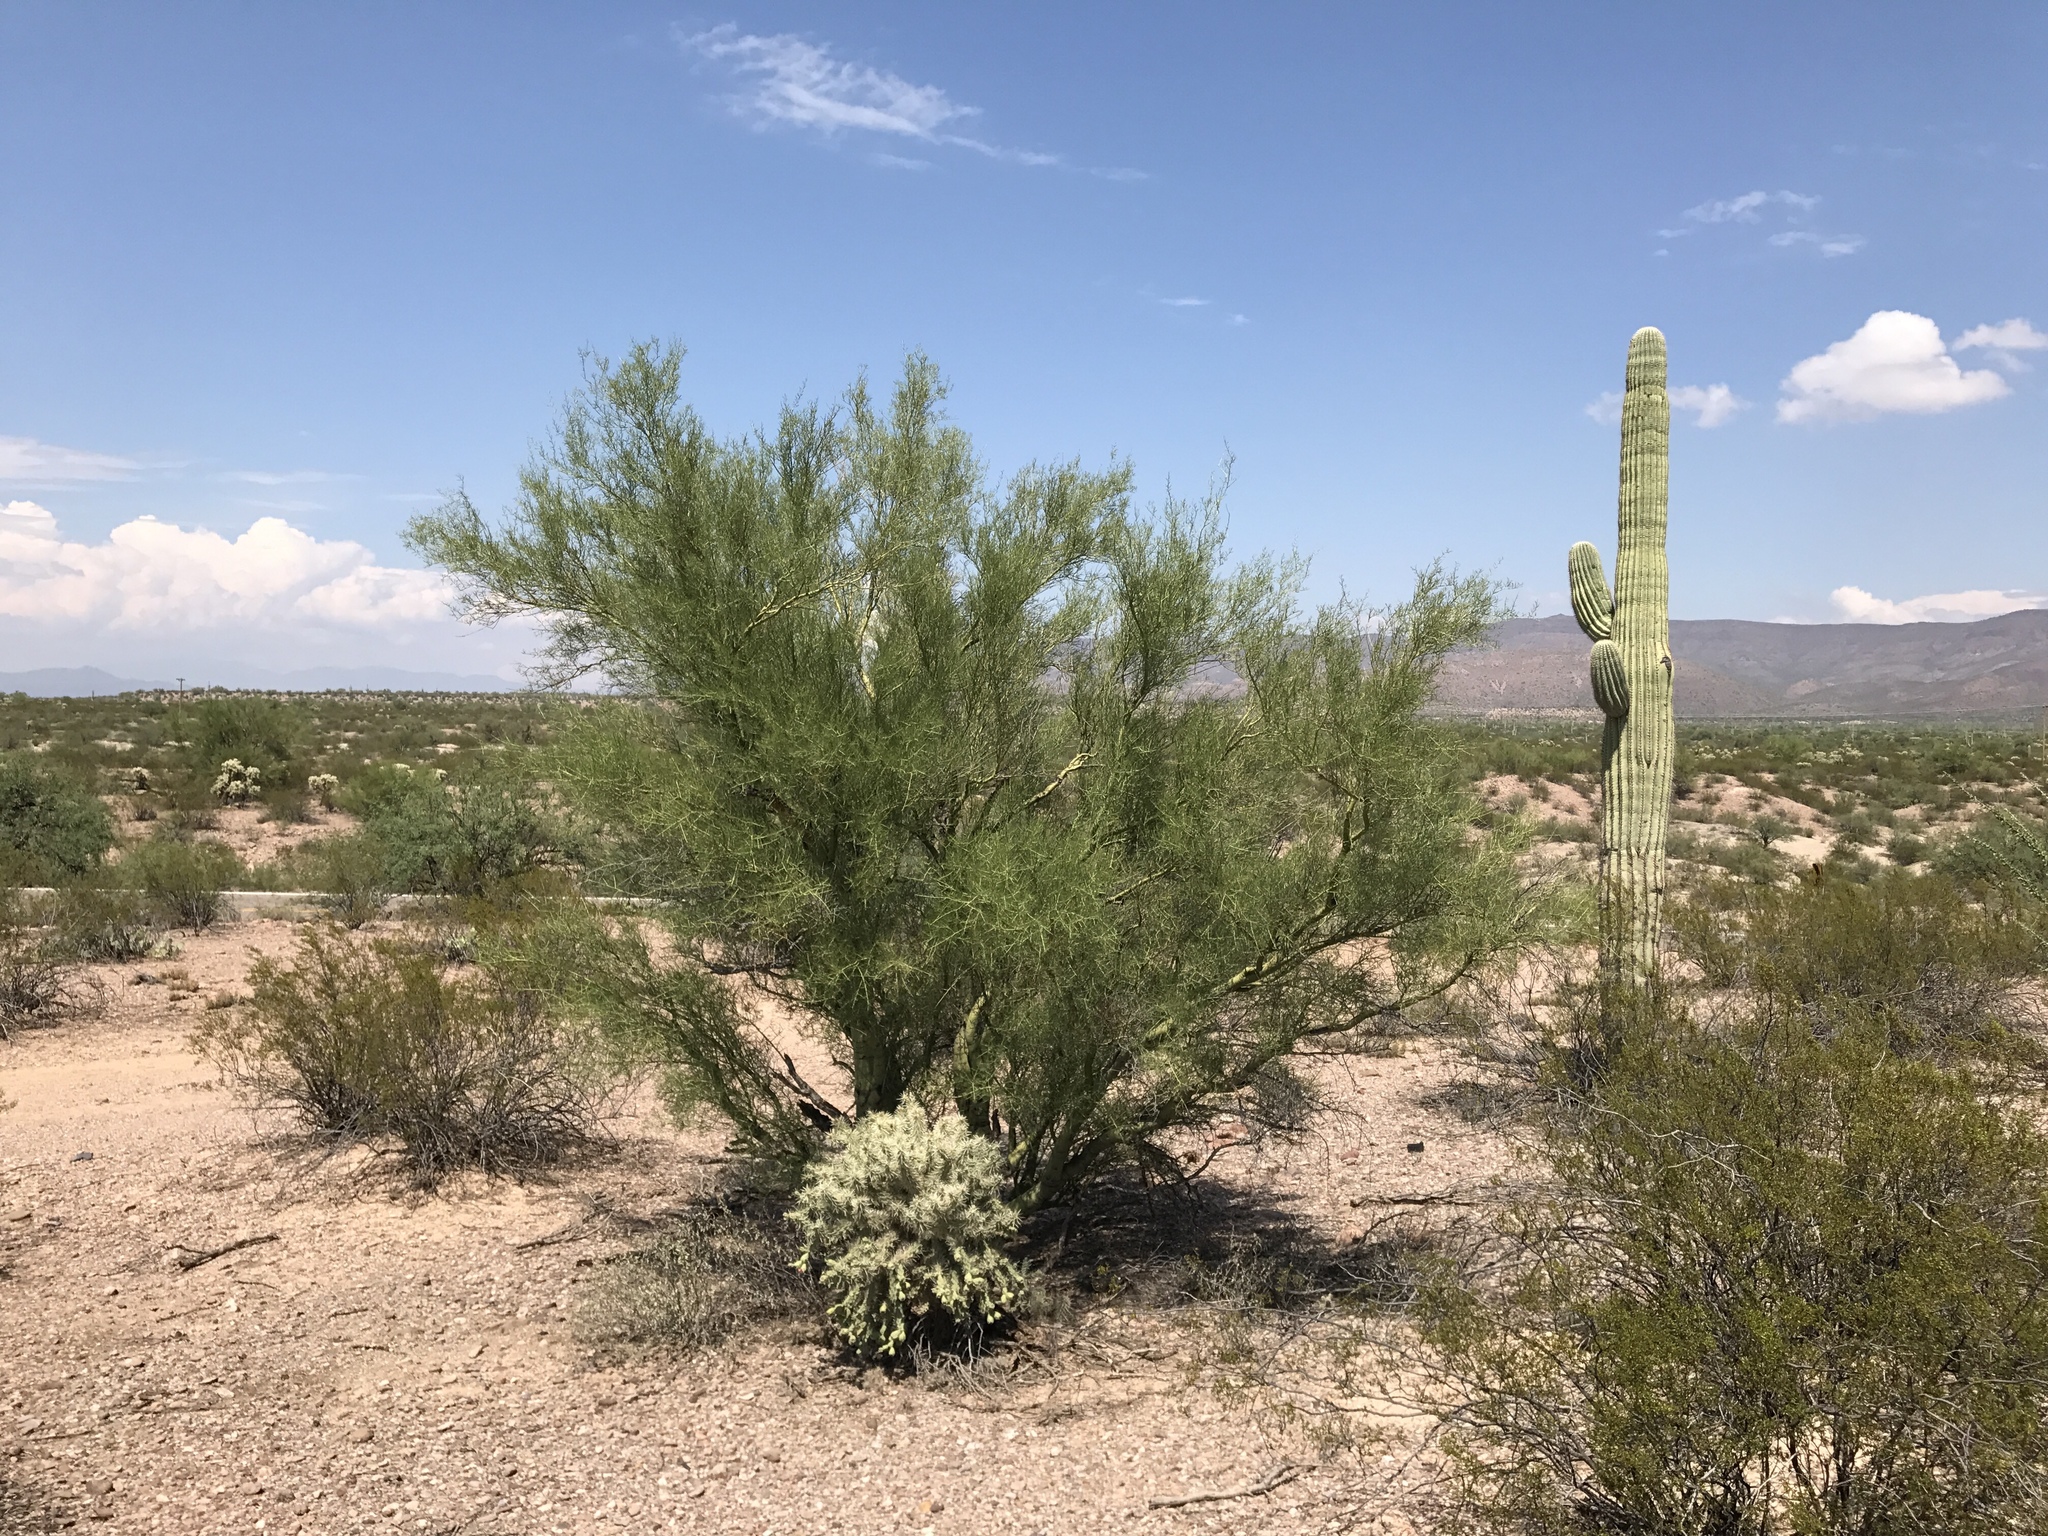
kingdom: Plantae
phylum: Tracheophyta
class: Magnoliopsida
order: Fabales
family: Fabaceae
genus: Parkinsonia
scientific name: Parkinsonia microphylla
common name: Yellow paloverde
